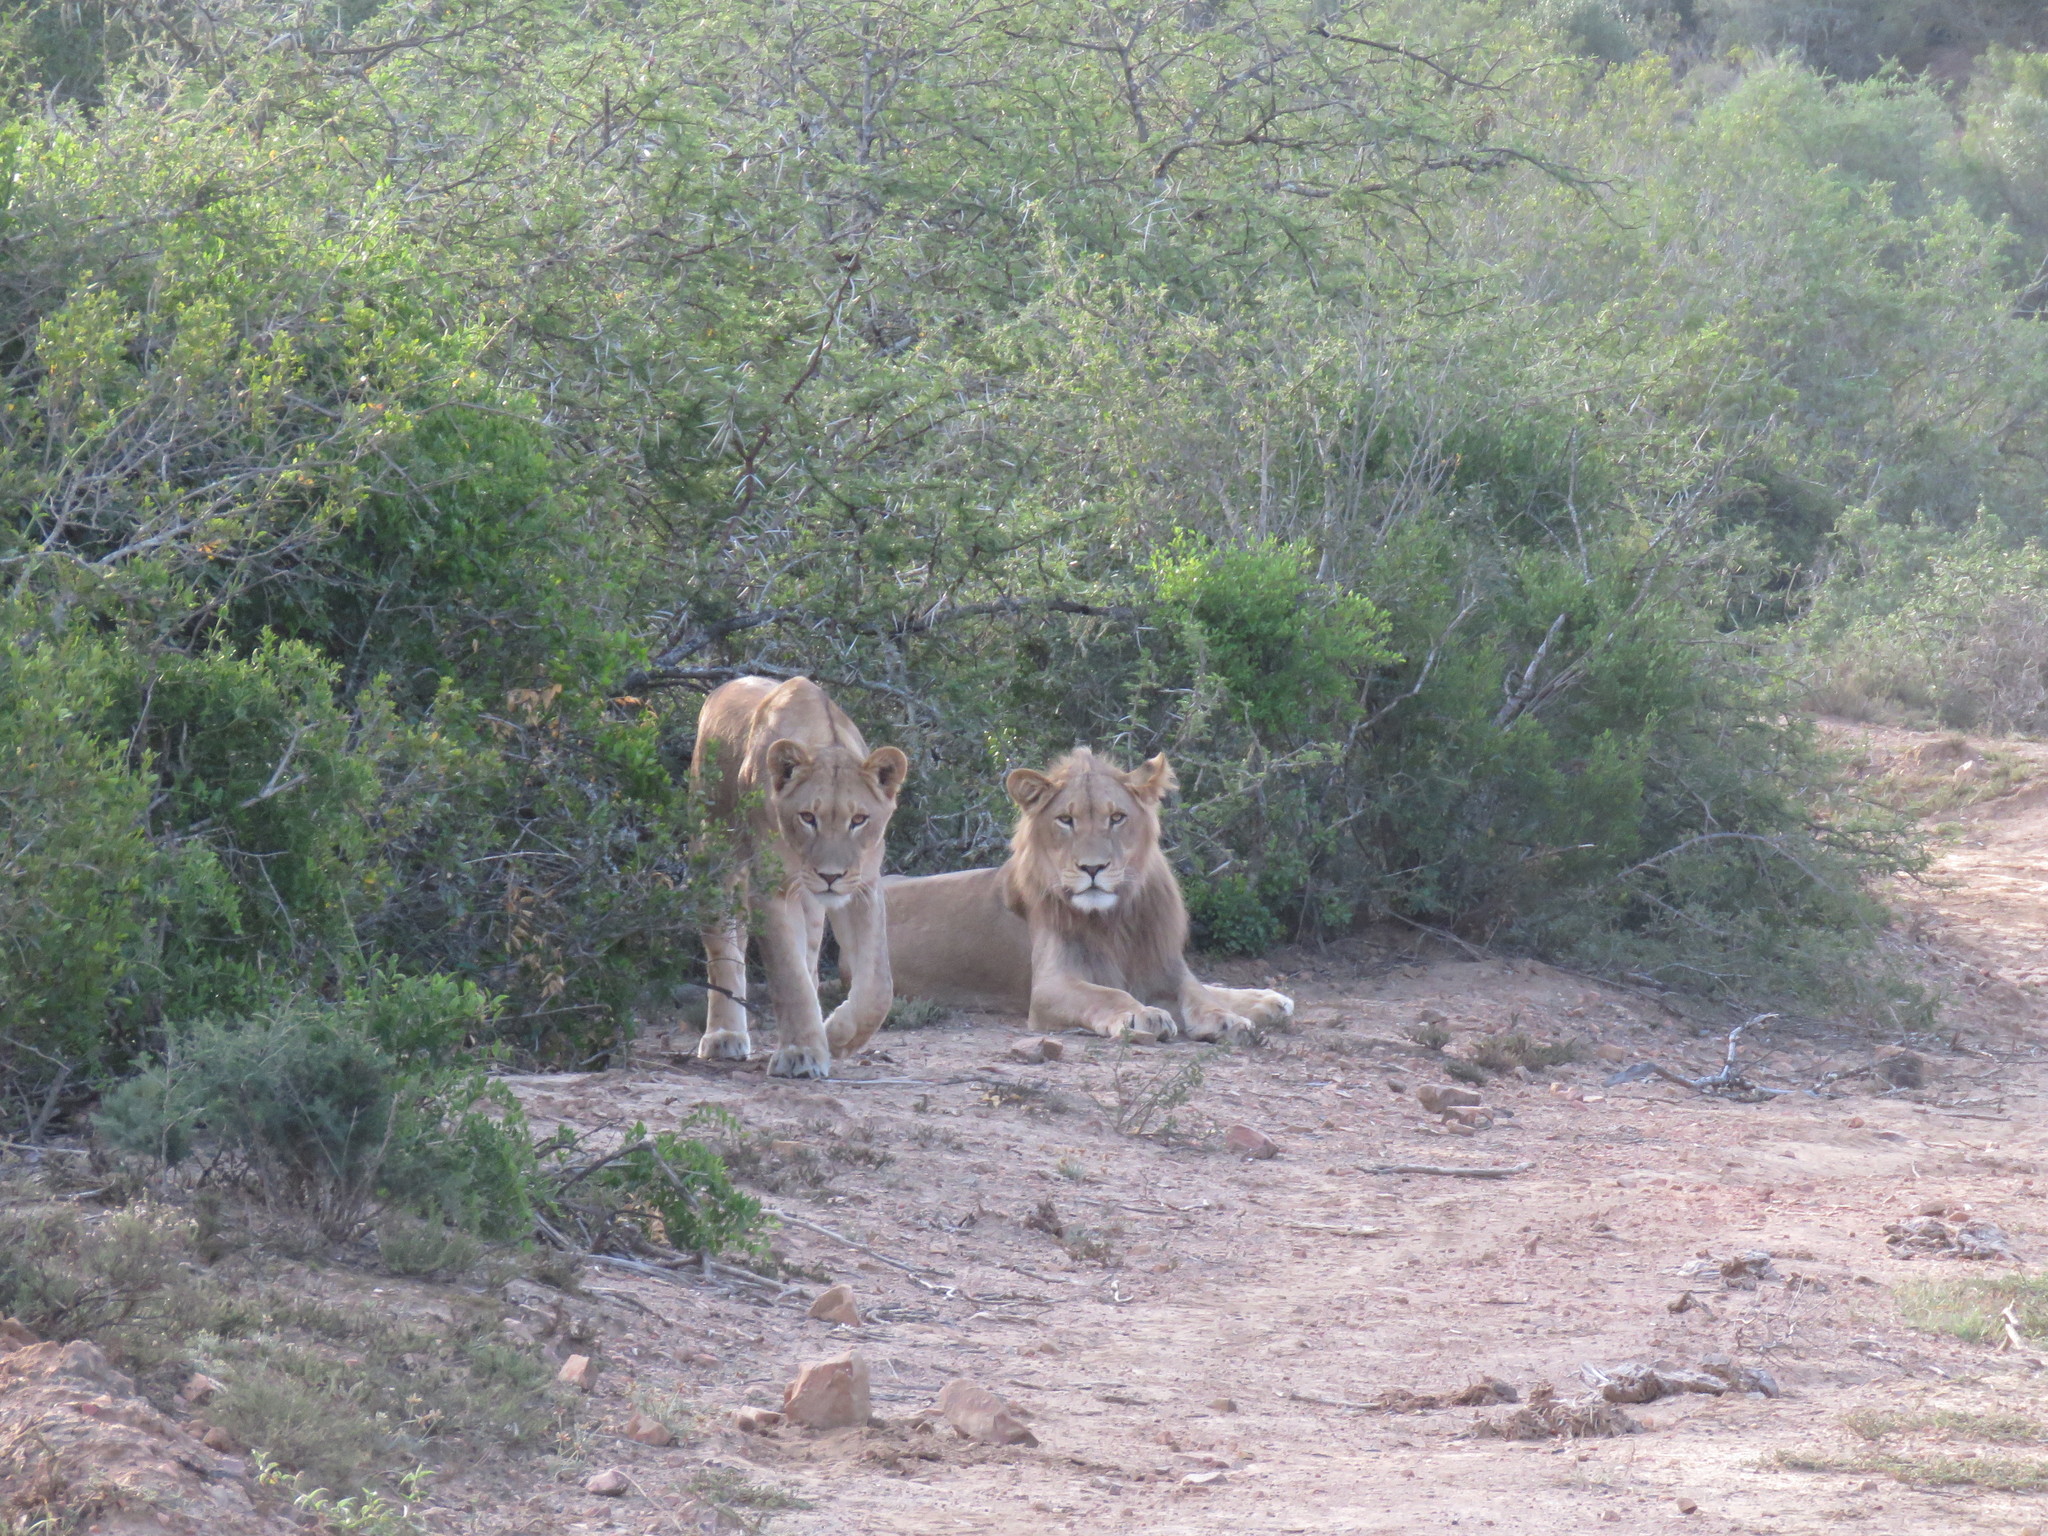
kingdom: Animalia
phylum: Chordata
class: Mammalia
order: Carnivora
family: Felidae
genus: Panthera
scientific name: Panthera leo
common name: Lion
